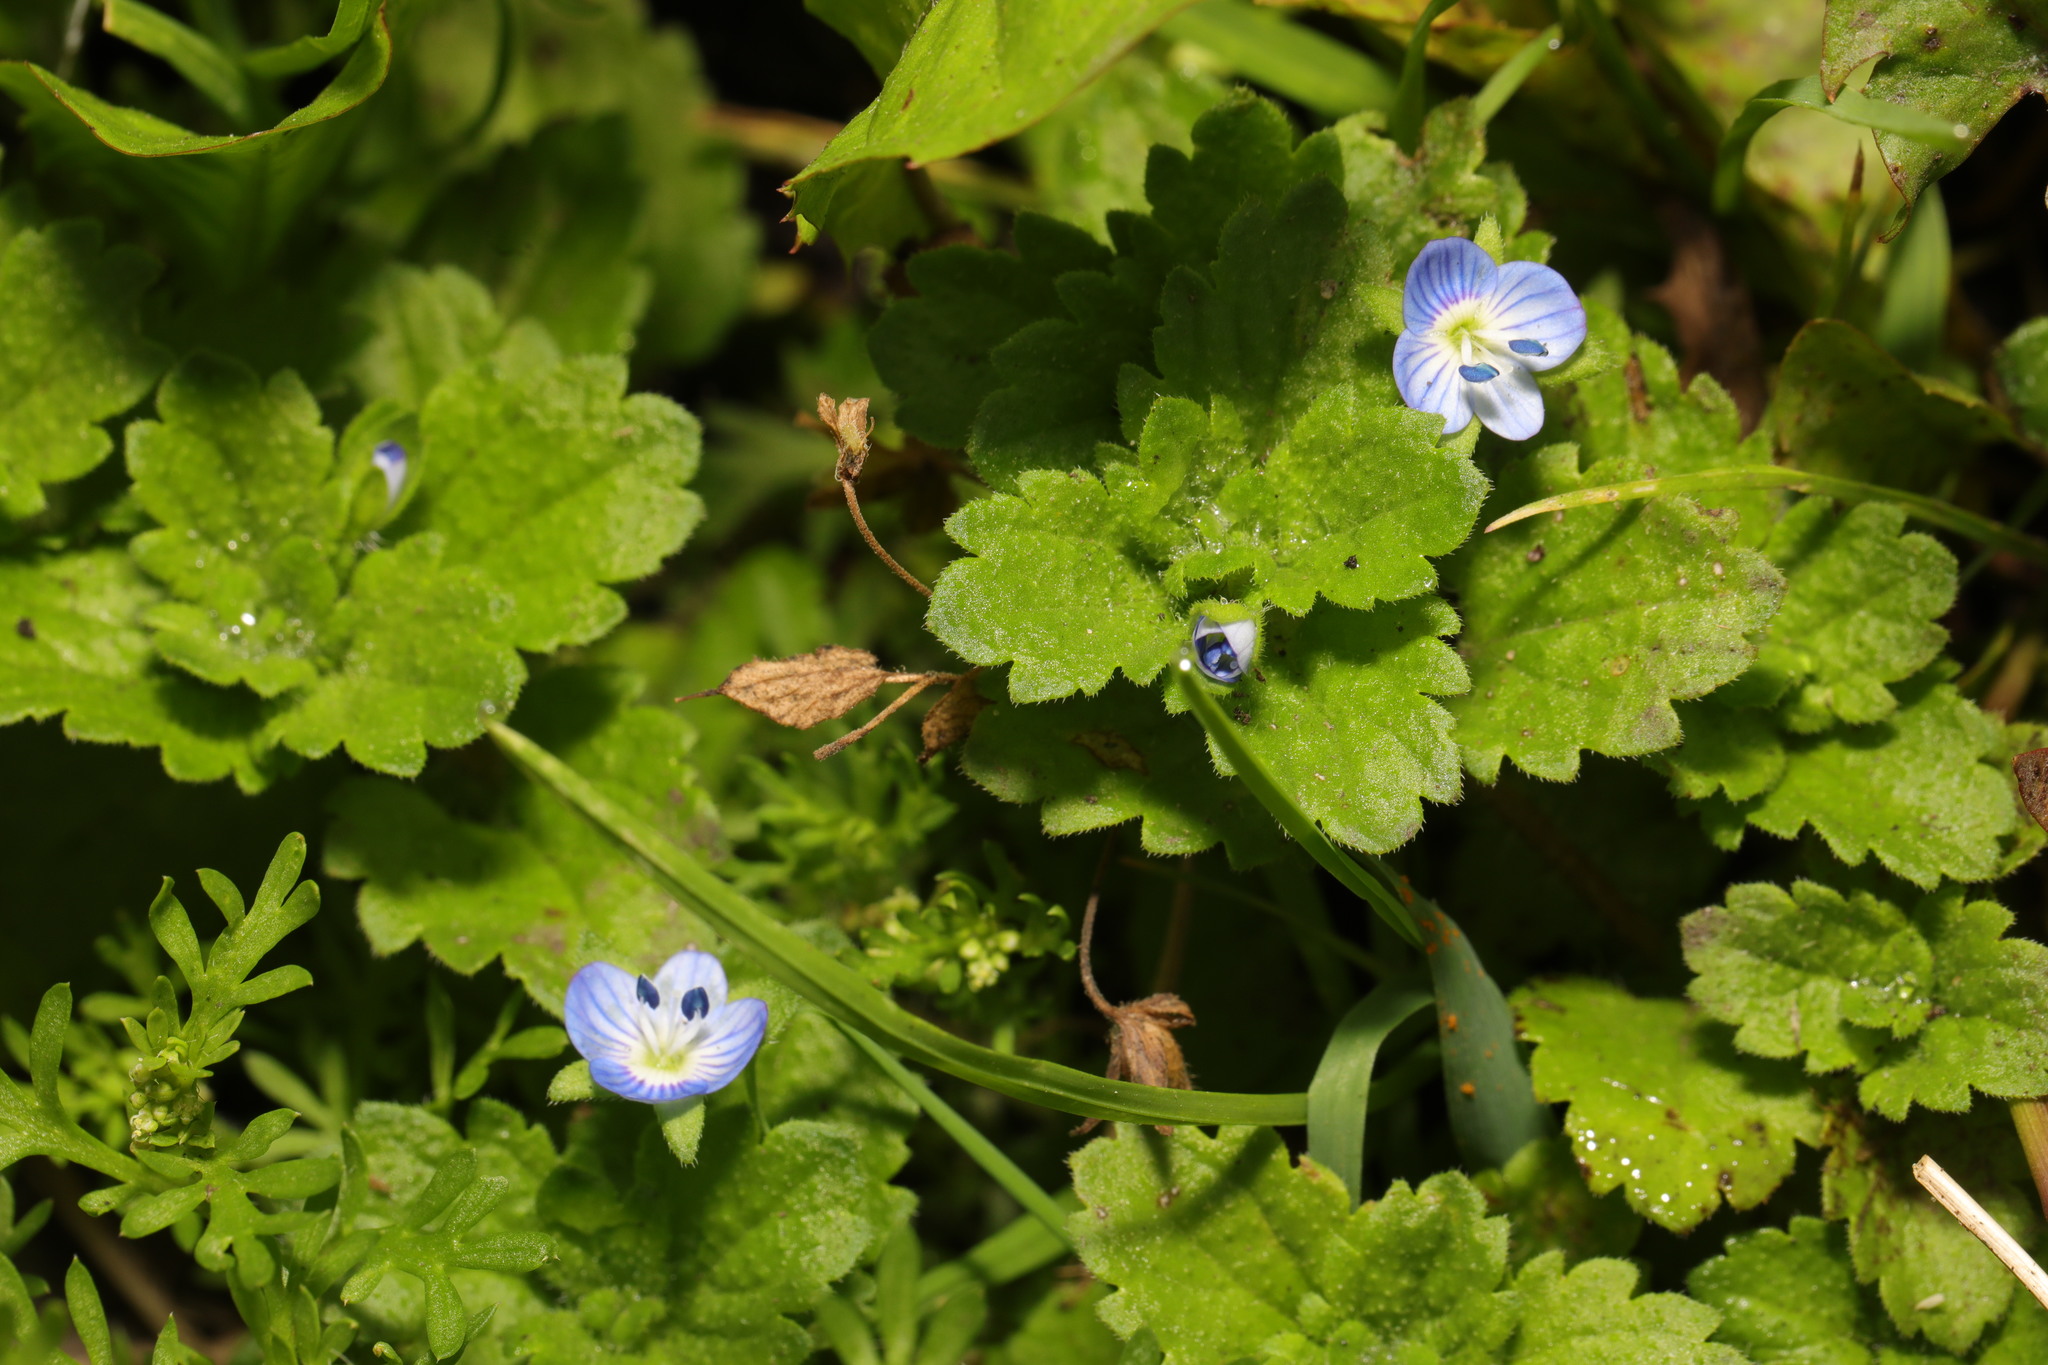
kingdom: Plantae
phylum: Tracheophyta
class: Magnoliopsida
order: Lamiales
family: Plantaginaceae
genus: Veronica
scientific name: Veronica persica
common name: Common field-speedwell
